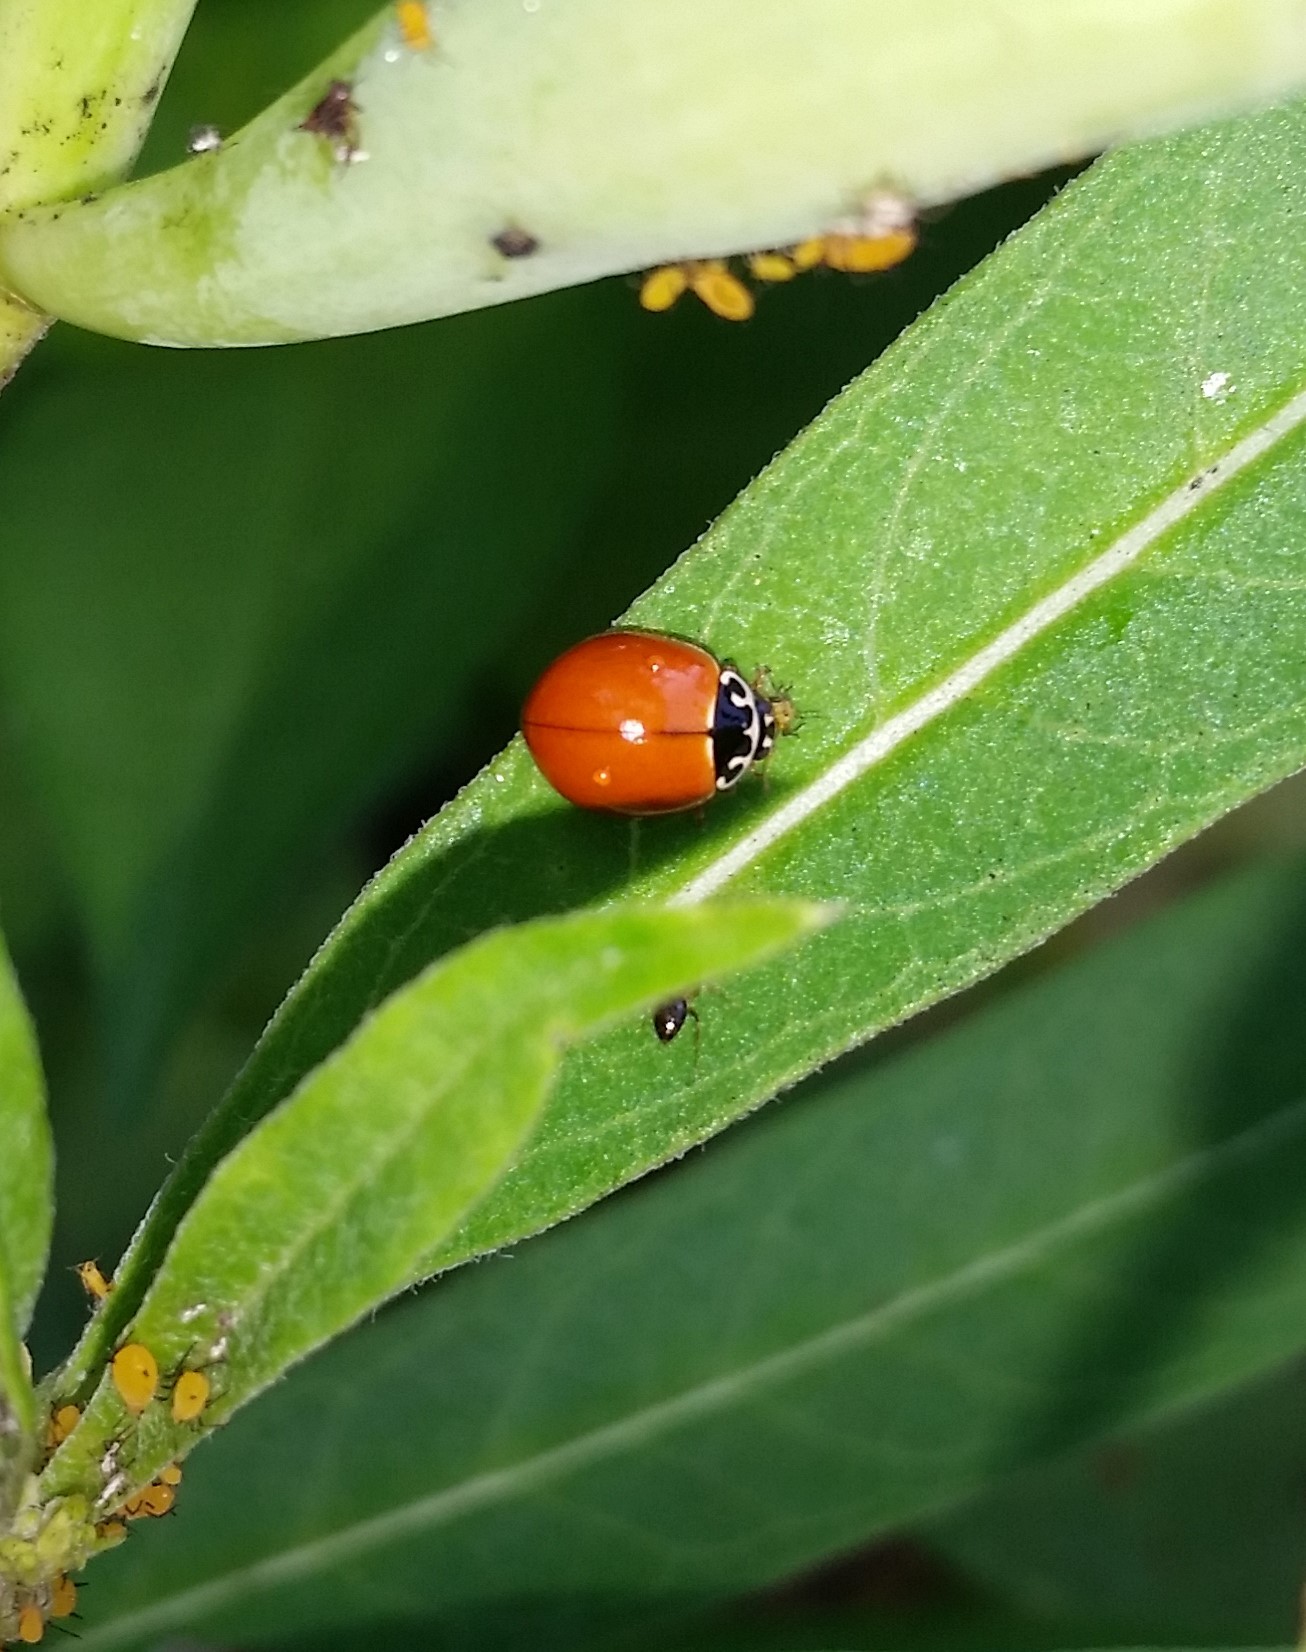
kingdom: Animalia
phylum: Arthropoda
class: Insecta
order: Coleoptera
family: Coccinellidae
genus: Cycloneda
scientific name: Cycloneda munda
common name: Polished lady beetle
